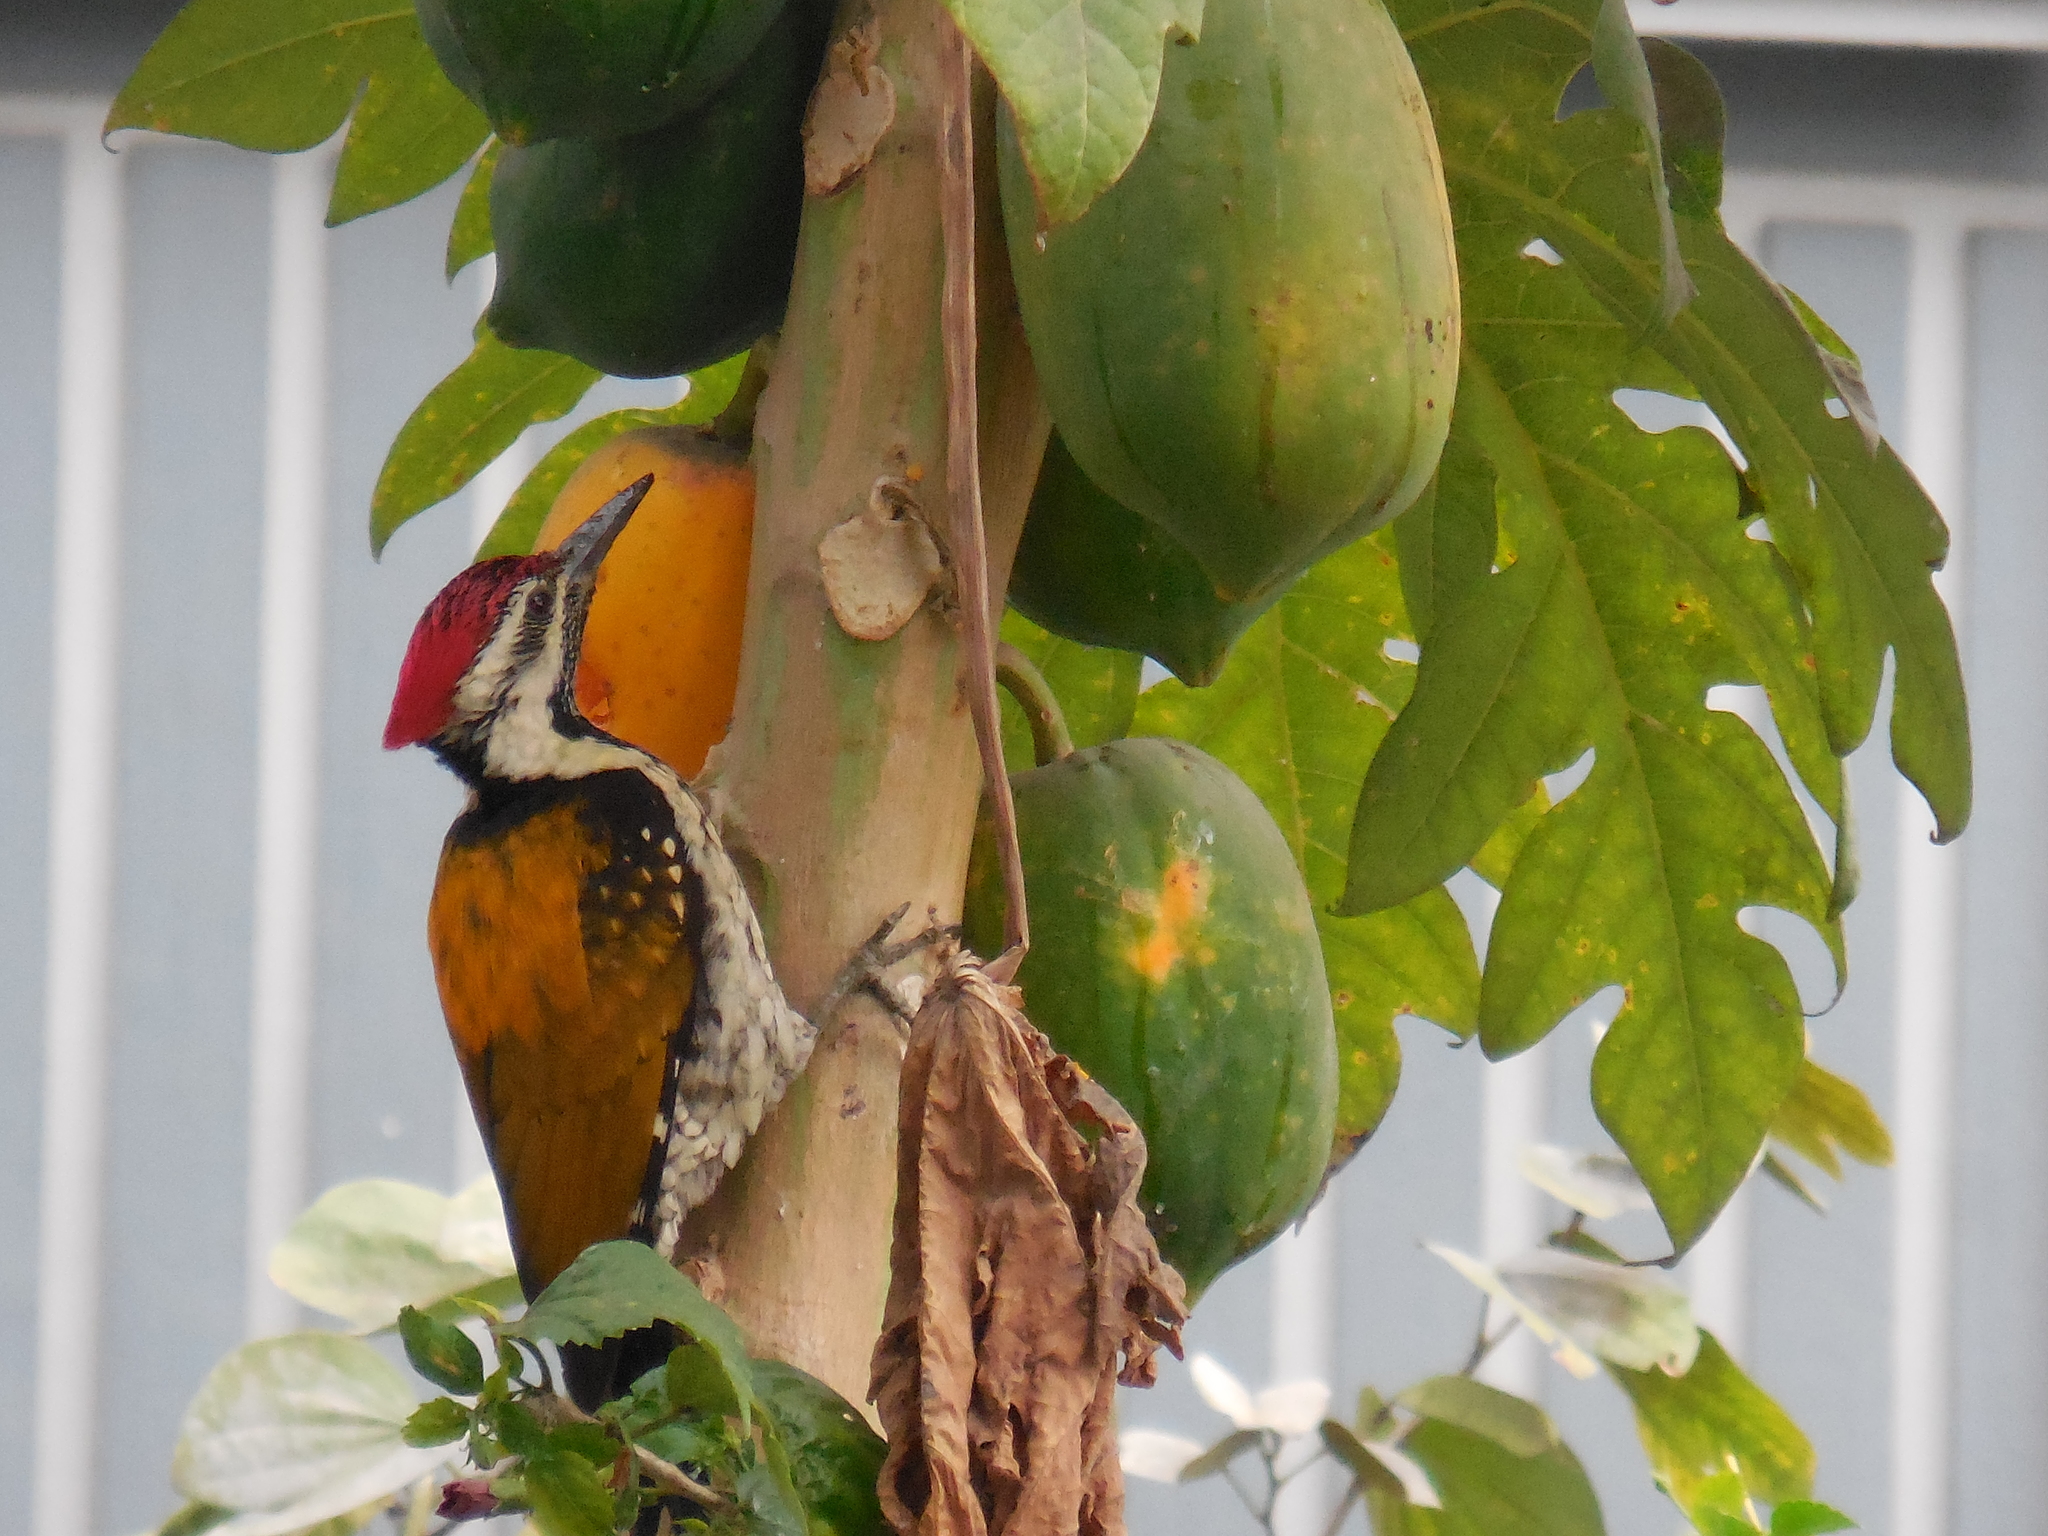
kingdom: Animalia
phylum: Chordata
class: Aves
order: Piciformes
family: Picidae
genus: Dinopium
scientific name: Dinopium benghalense
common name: Black-rumped flameback
